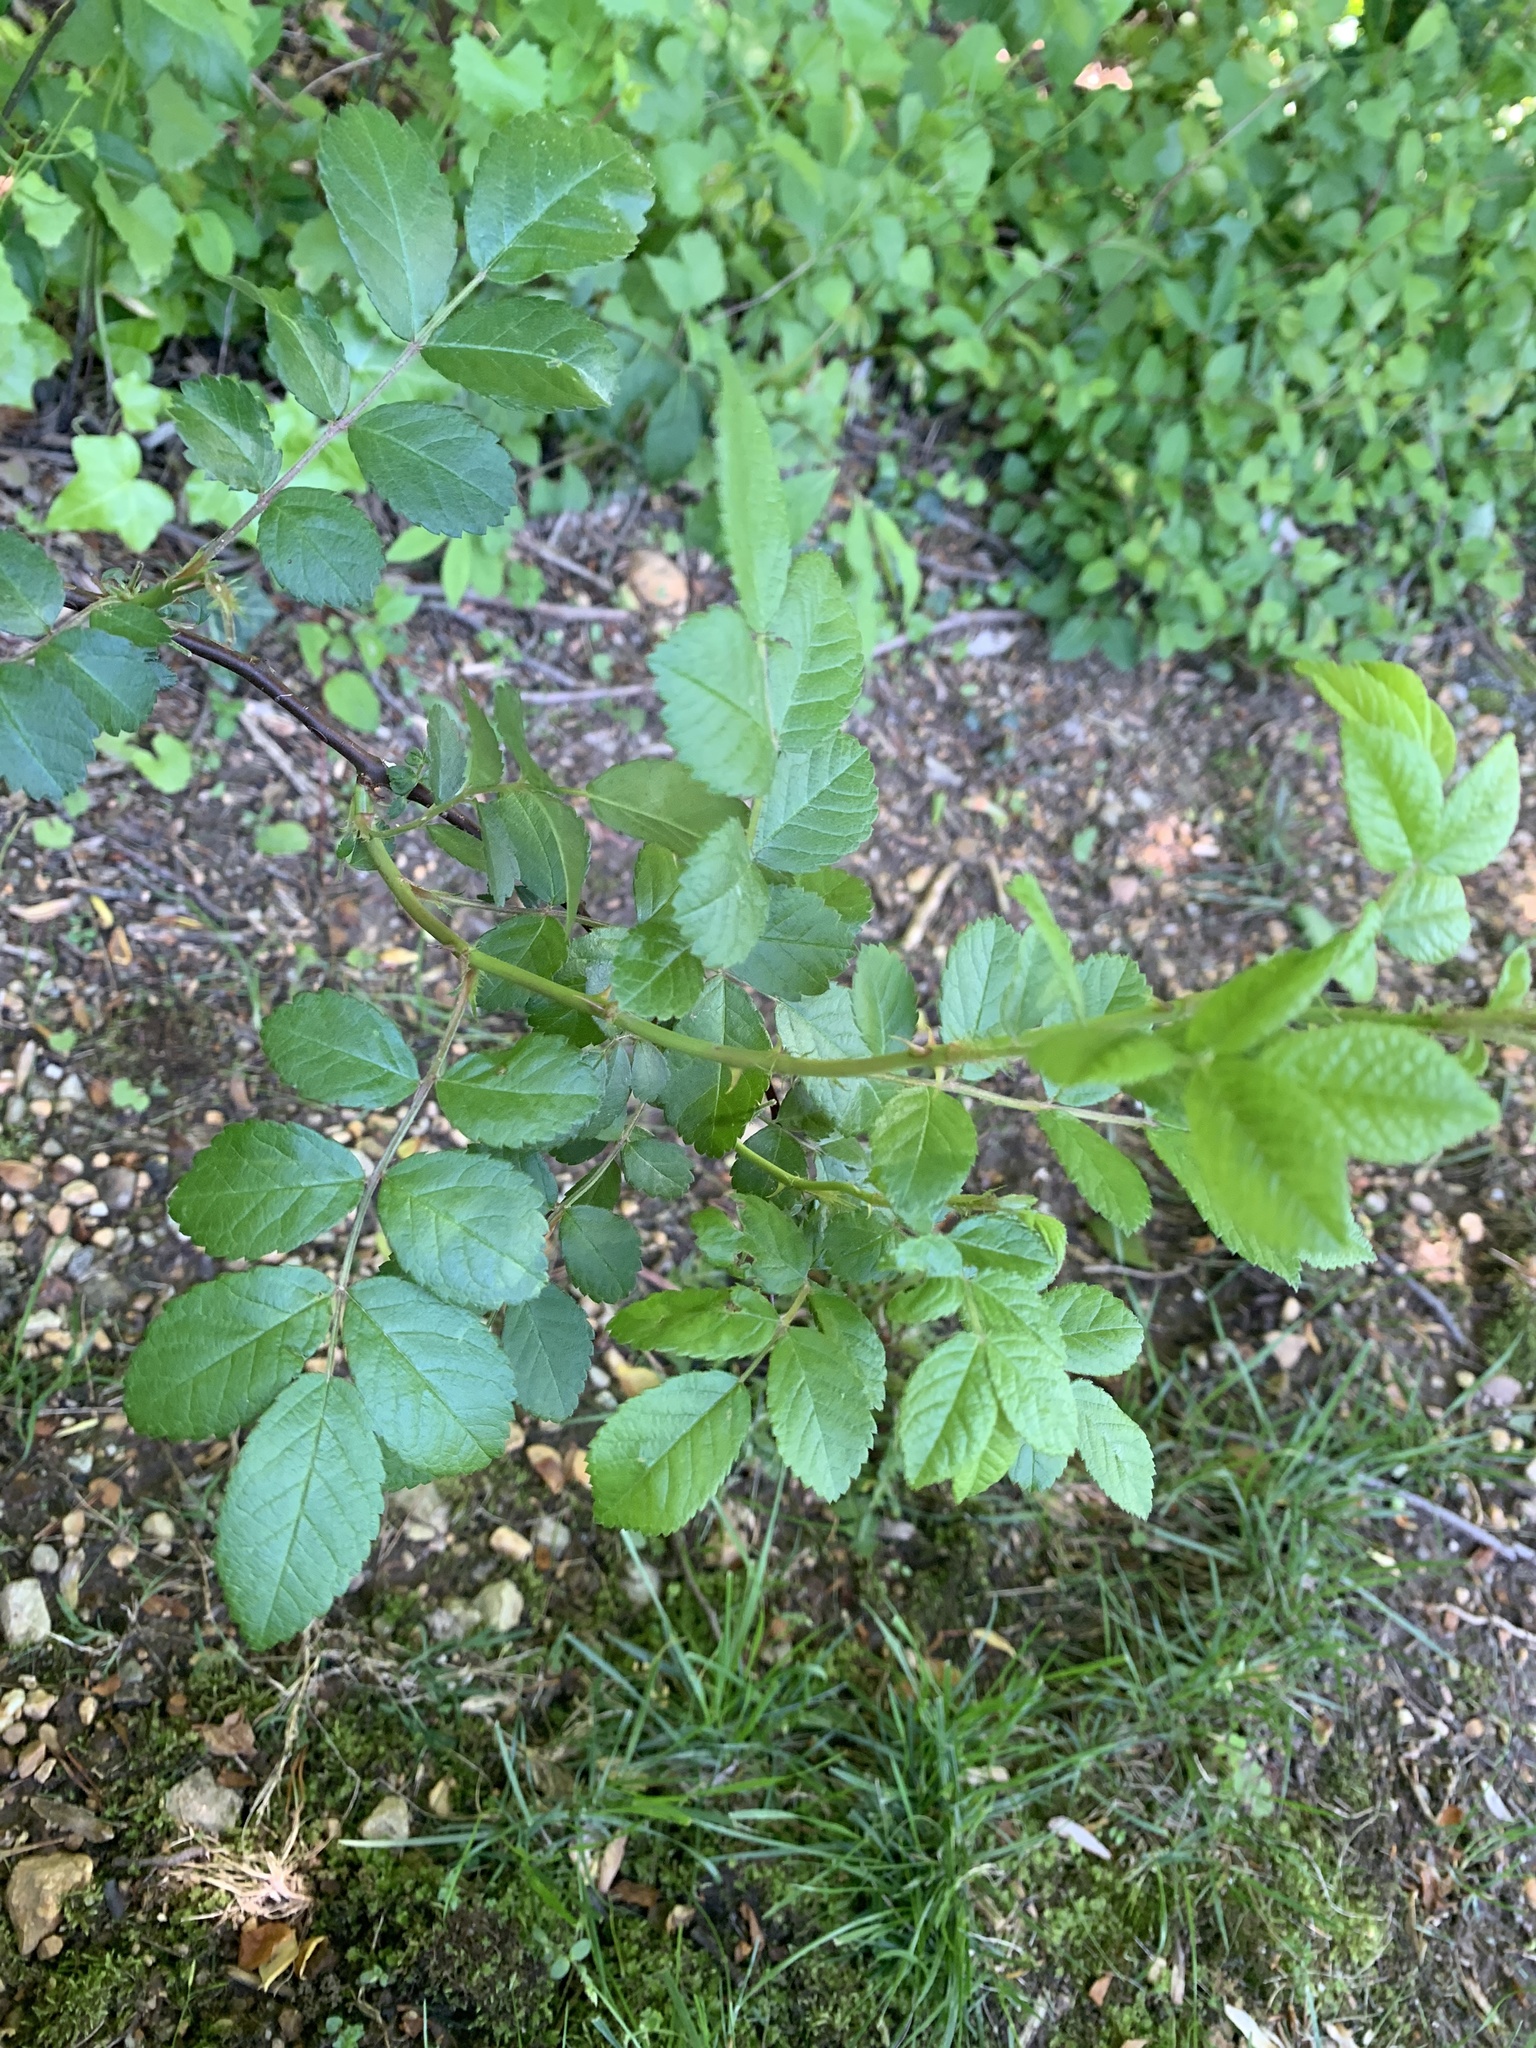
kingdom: Plantae
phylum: Tracheophyta
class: Magnoliopsida
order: Rosales
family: Rosaceae
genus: Rosa
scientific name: Rosa multiflora
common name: Multiflora rose
